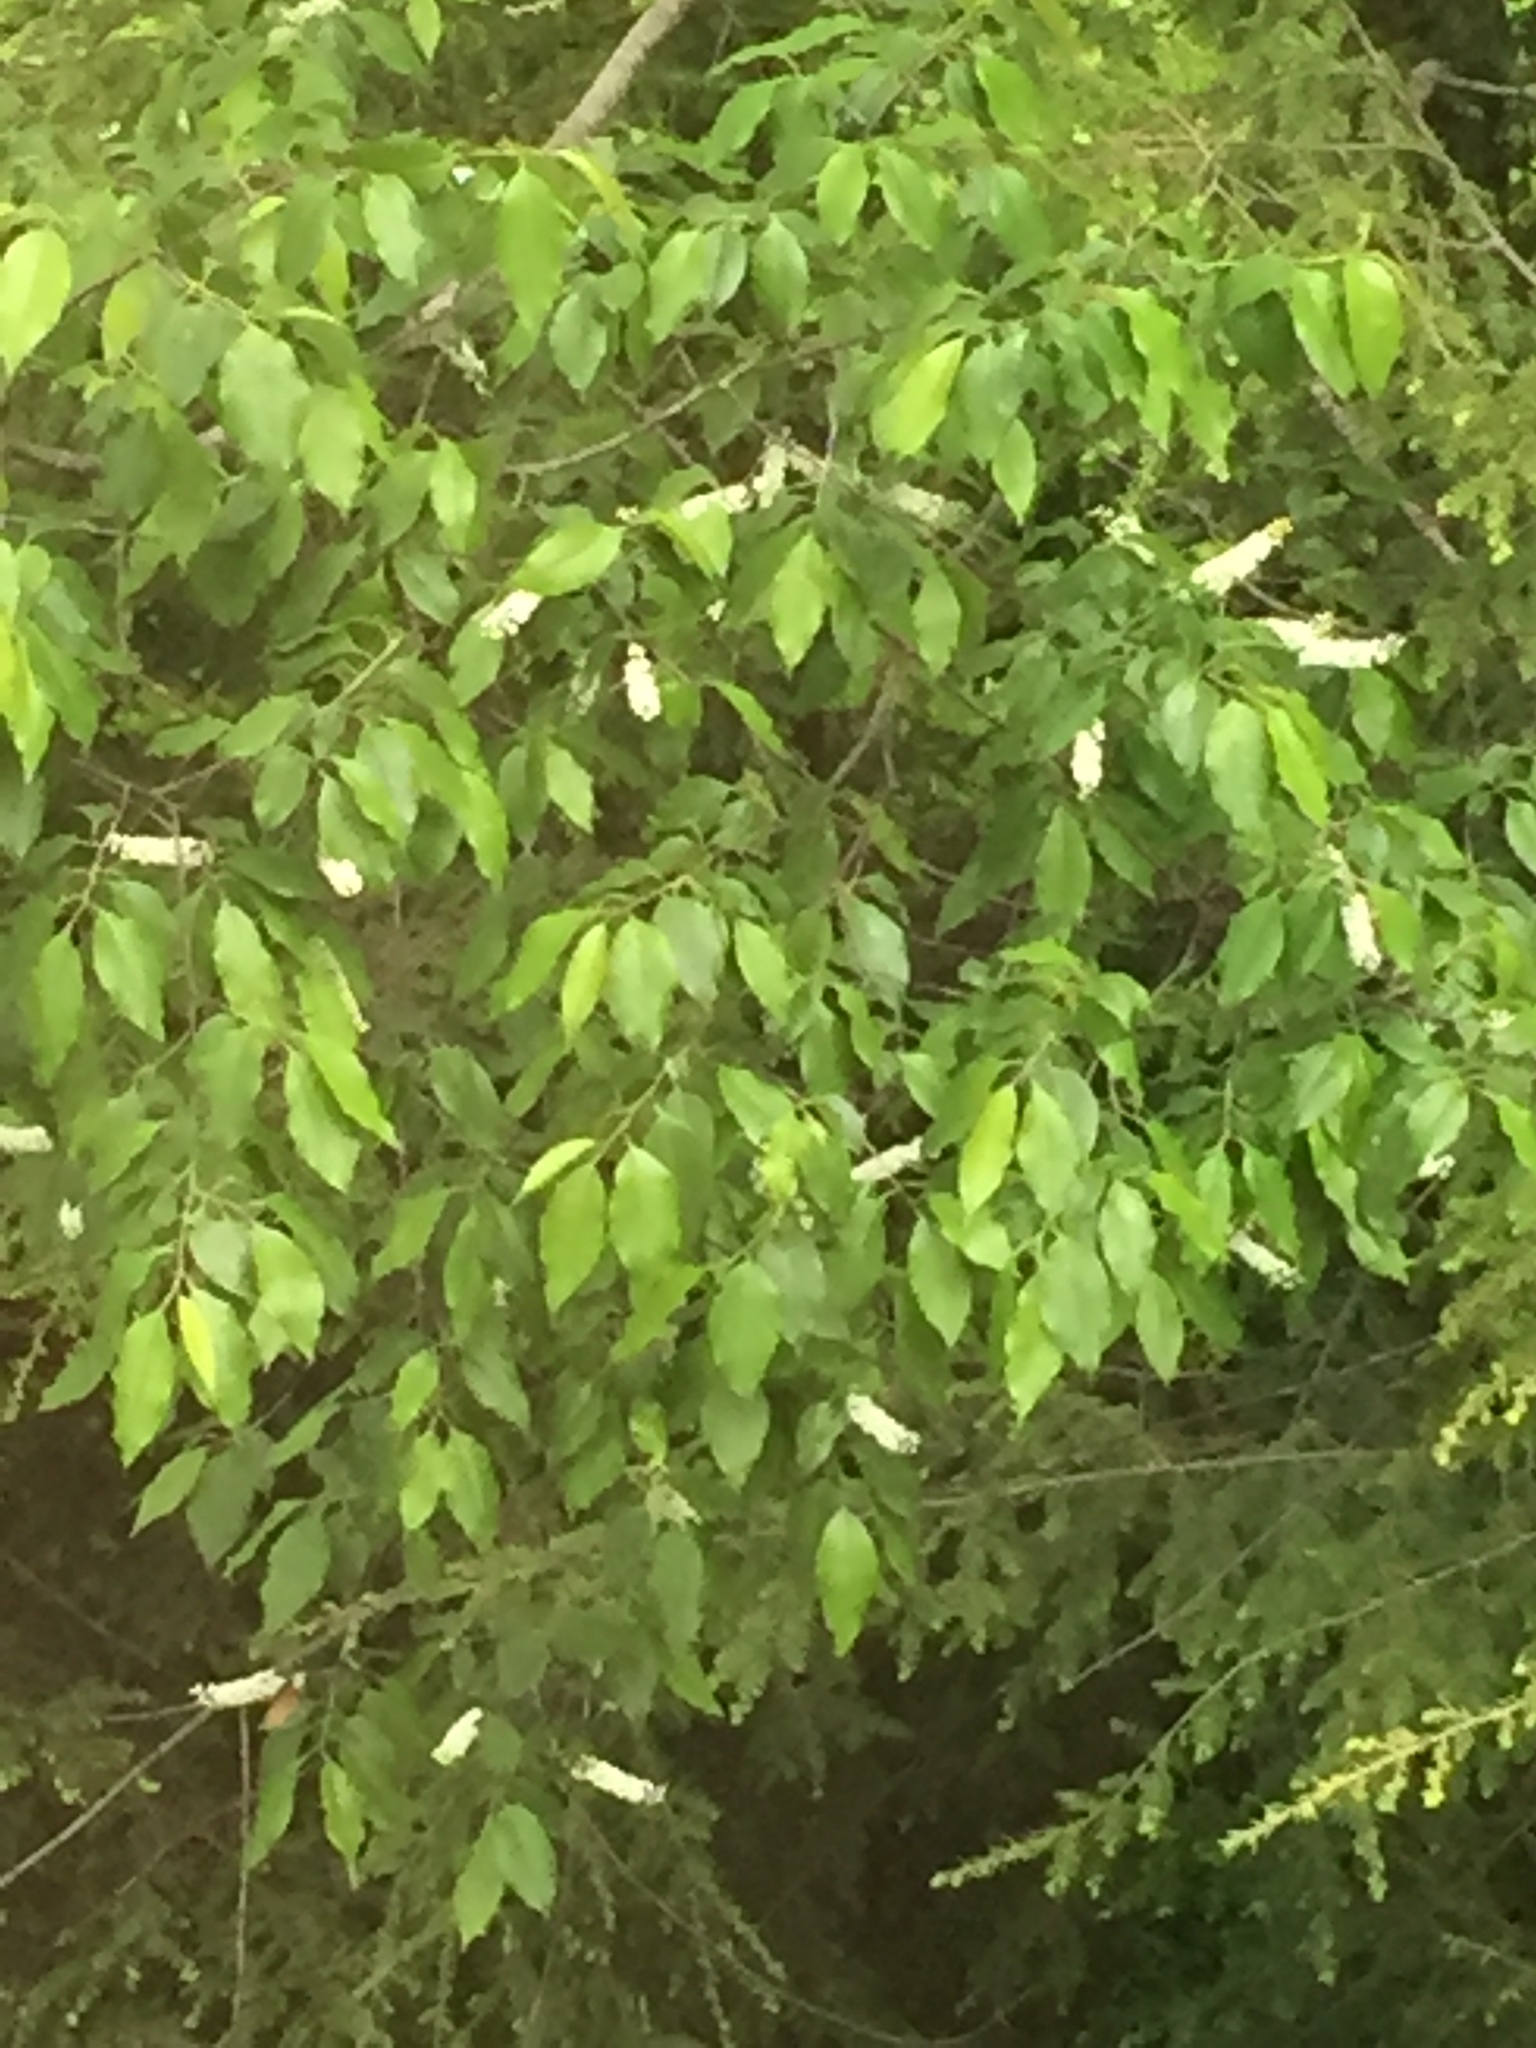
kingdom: Plantae
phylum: Tracheophyta
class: Magnoliopsida
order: Rosales
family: Rosaceae
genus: Prunus
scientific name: Prunus serotina
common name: Black cherry
